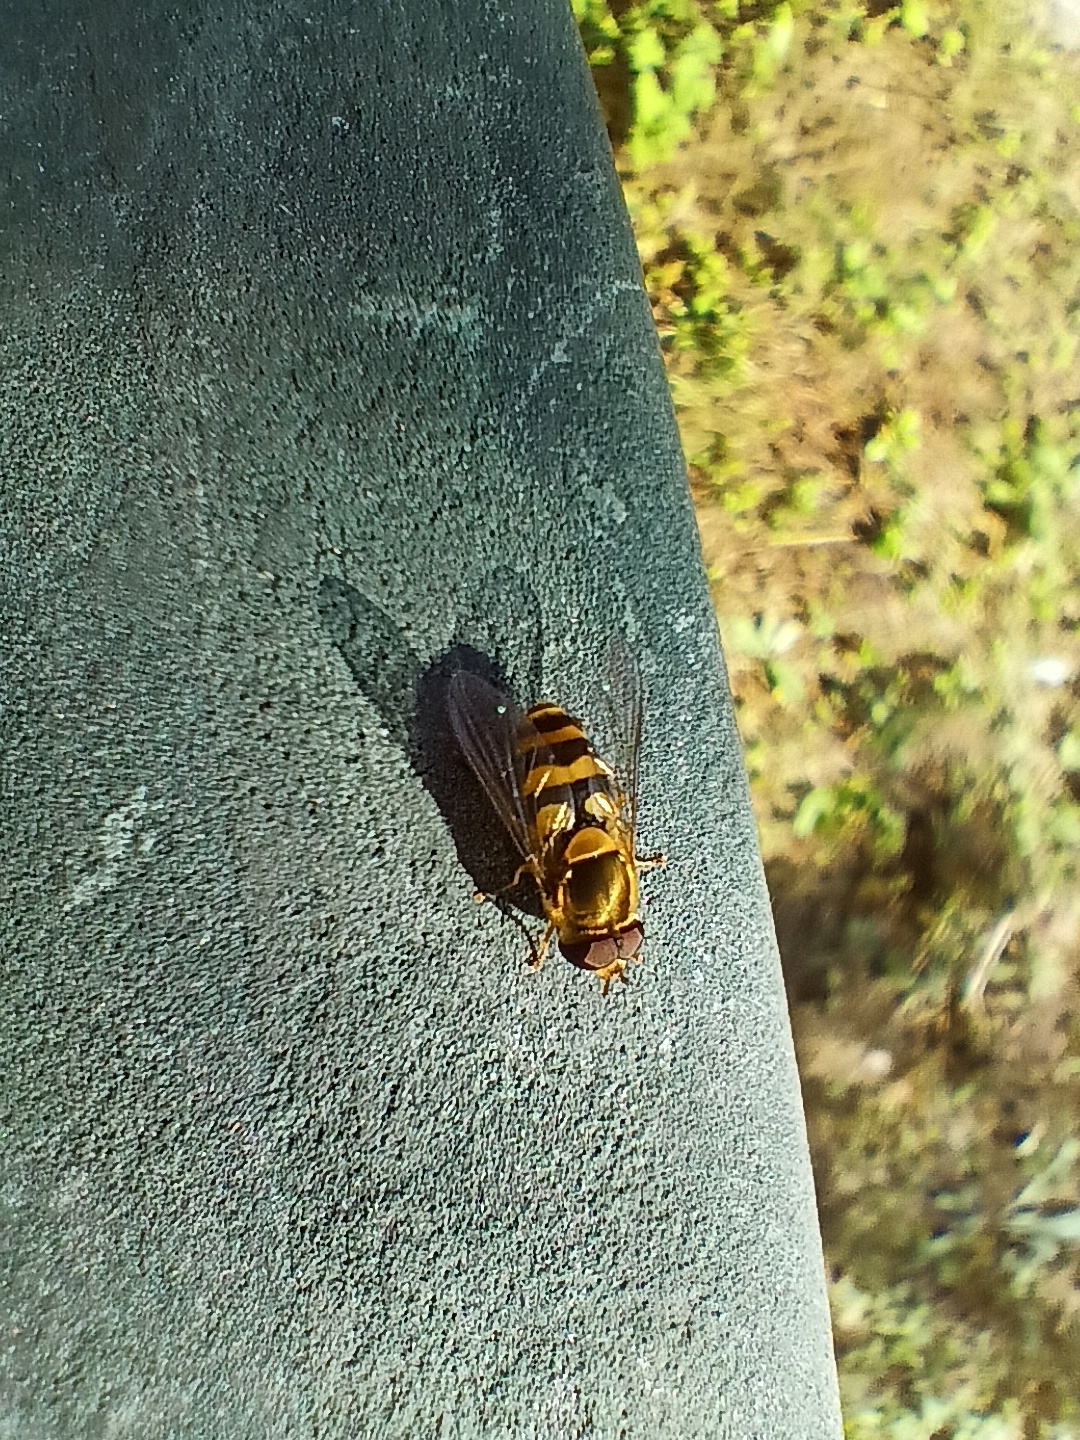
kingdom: Animalia
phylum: Arthropoda
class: Insecta
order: Diptera
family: Syrphidae
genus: Syrphus
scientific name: Syrphus torvus
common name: Hairy-eyed flower fly
